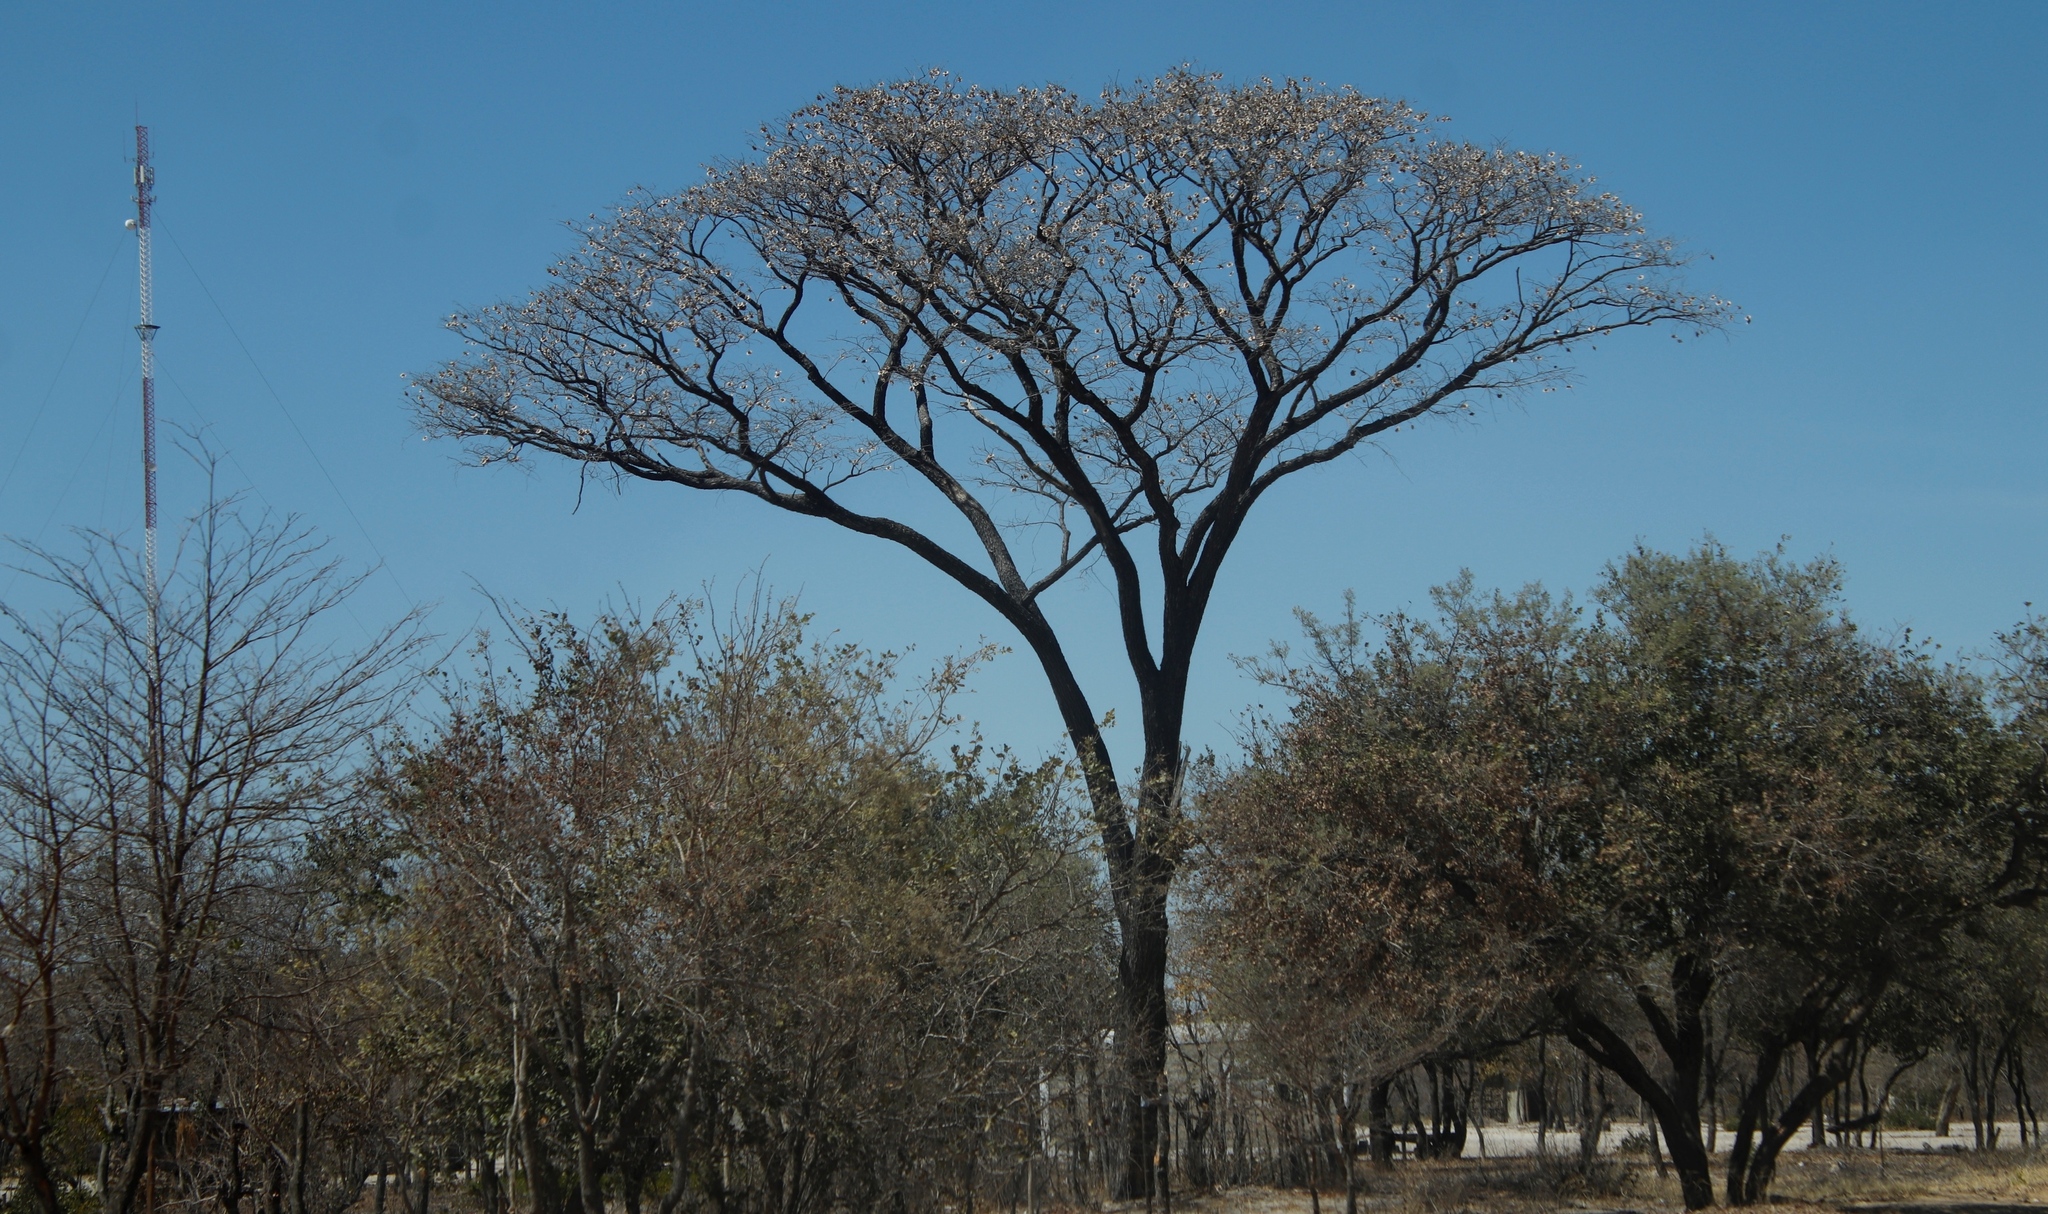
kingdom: Plantae
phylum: Tracheophyta
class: Magnoliopsida
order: Fabales
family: Fabaceae
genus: Pterocarpus
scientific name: Pterocarpus angolensis
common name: Bloodwood tree
